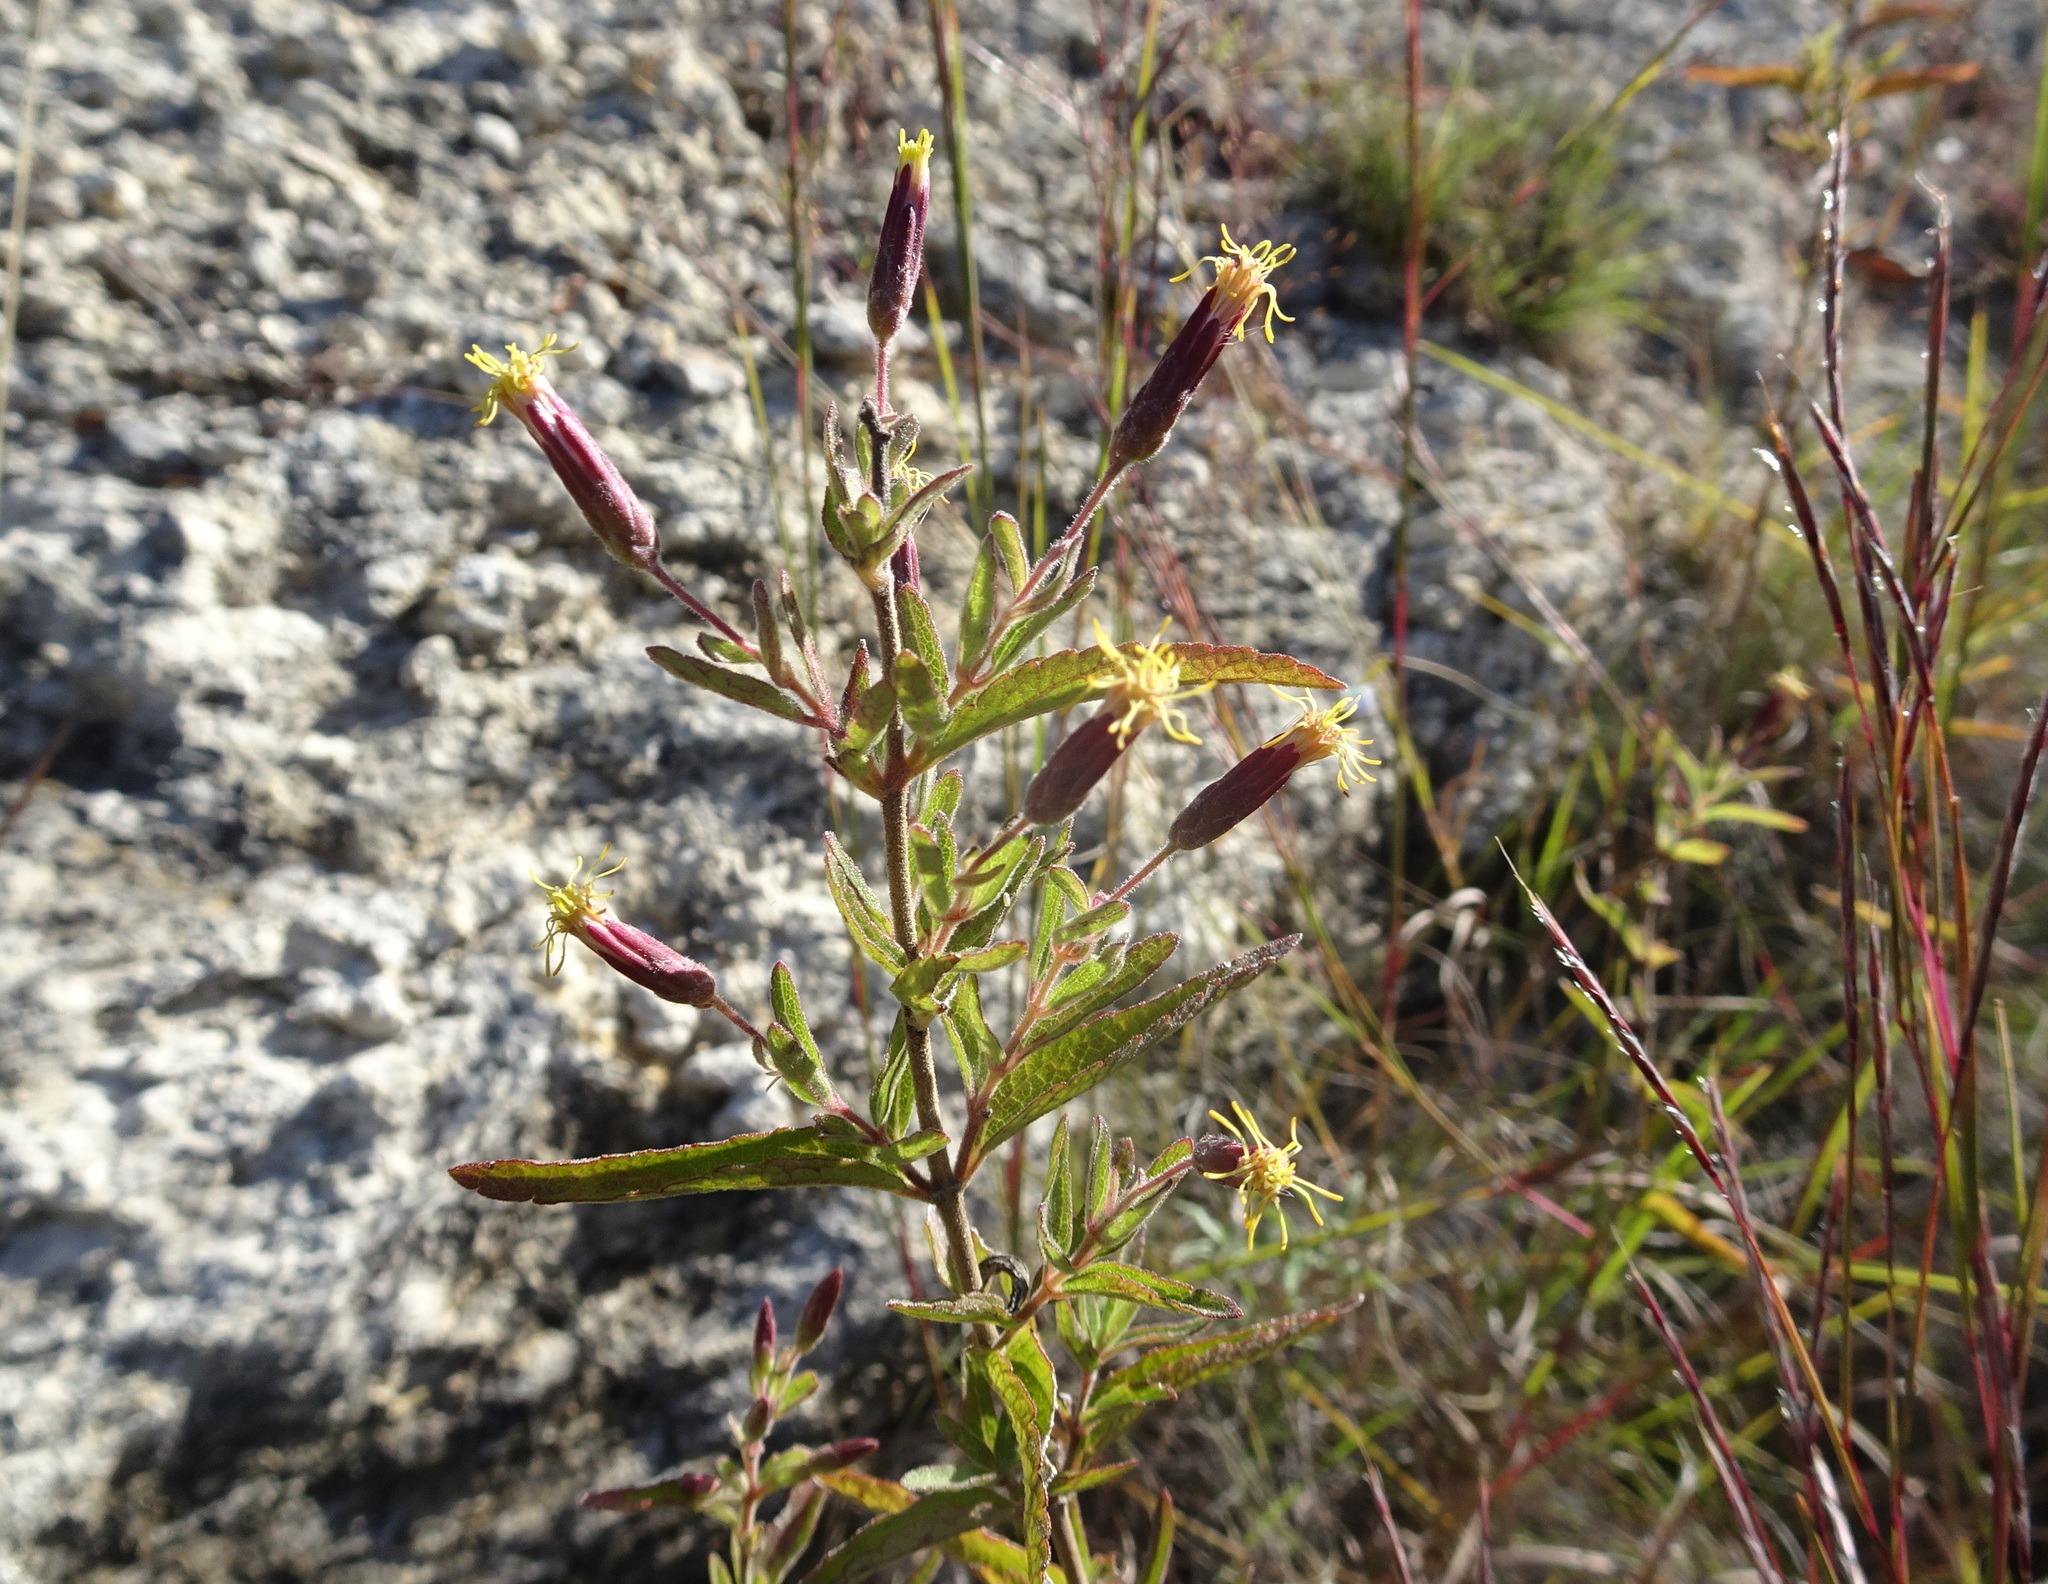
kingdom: Plantae
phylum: Tracheophyta
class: Magnoliopsida
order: Asterales
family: Asteraceae
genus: Brickellia
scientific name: Brickellia cylindracea
